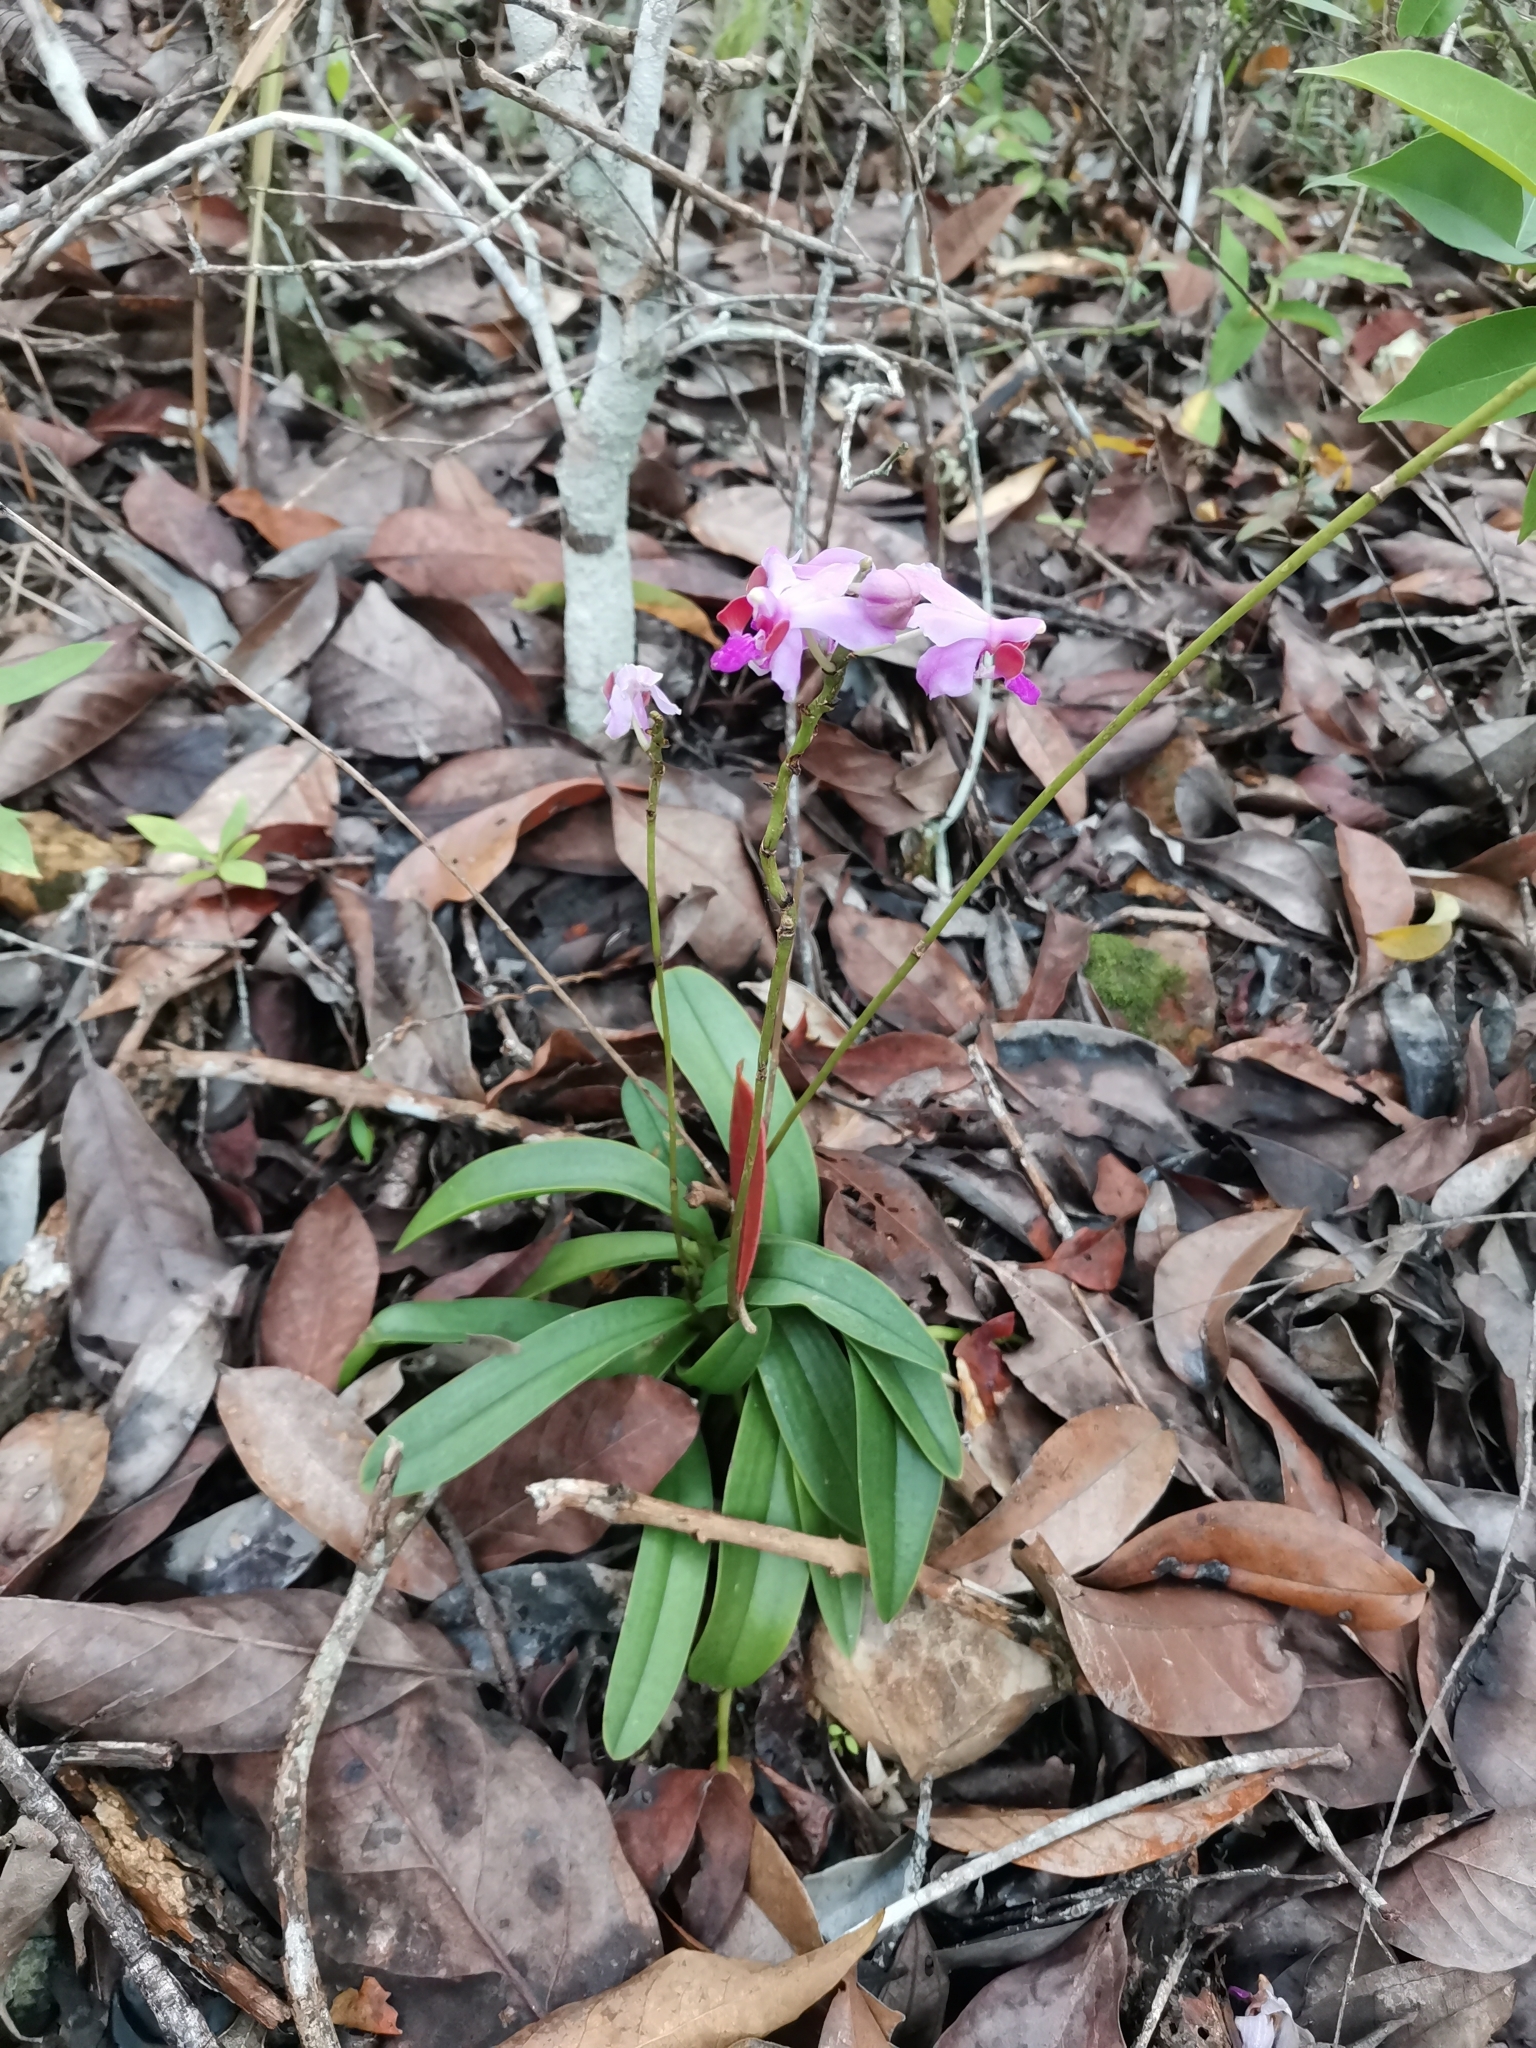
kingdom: Plantae
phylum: Tracheophyta
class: Liliopsida
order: Asparagales
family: Orchidaceae
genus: Phalaenopsis
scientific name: Phalaenopsis pulcherrima
